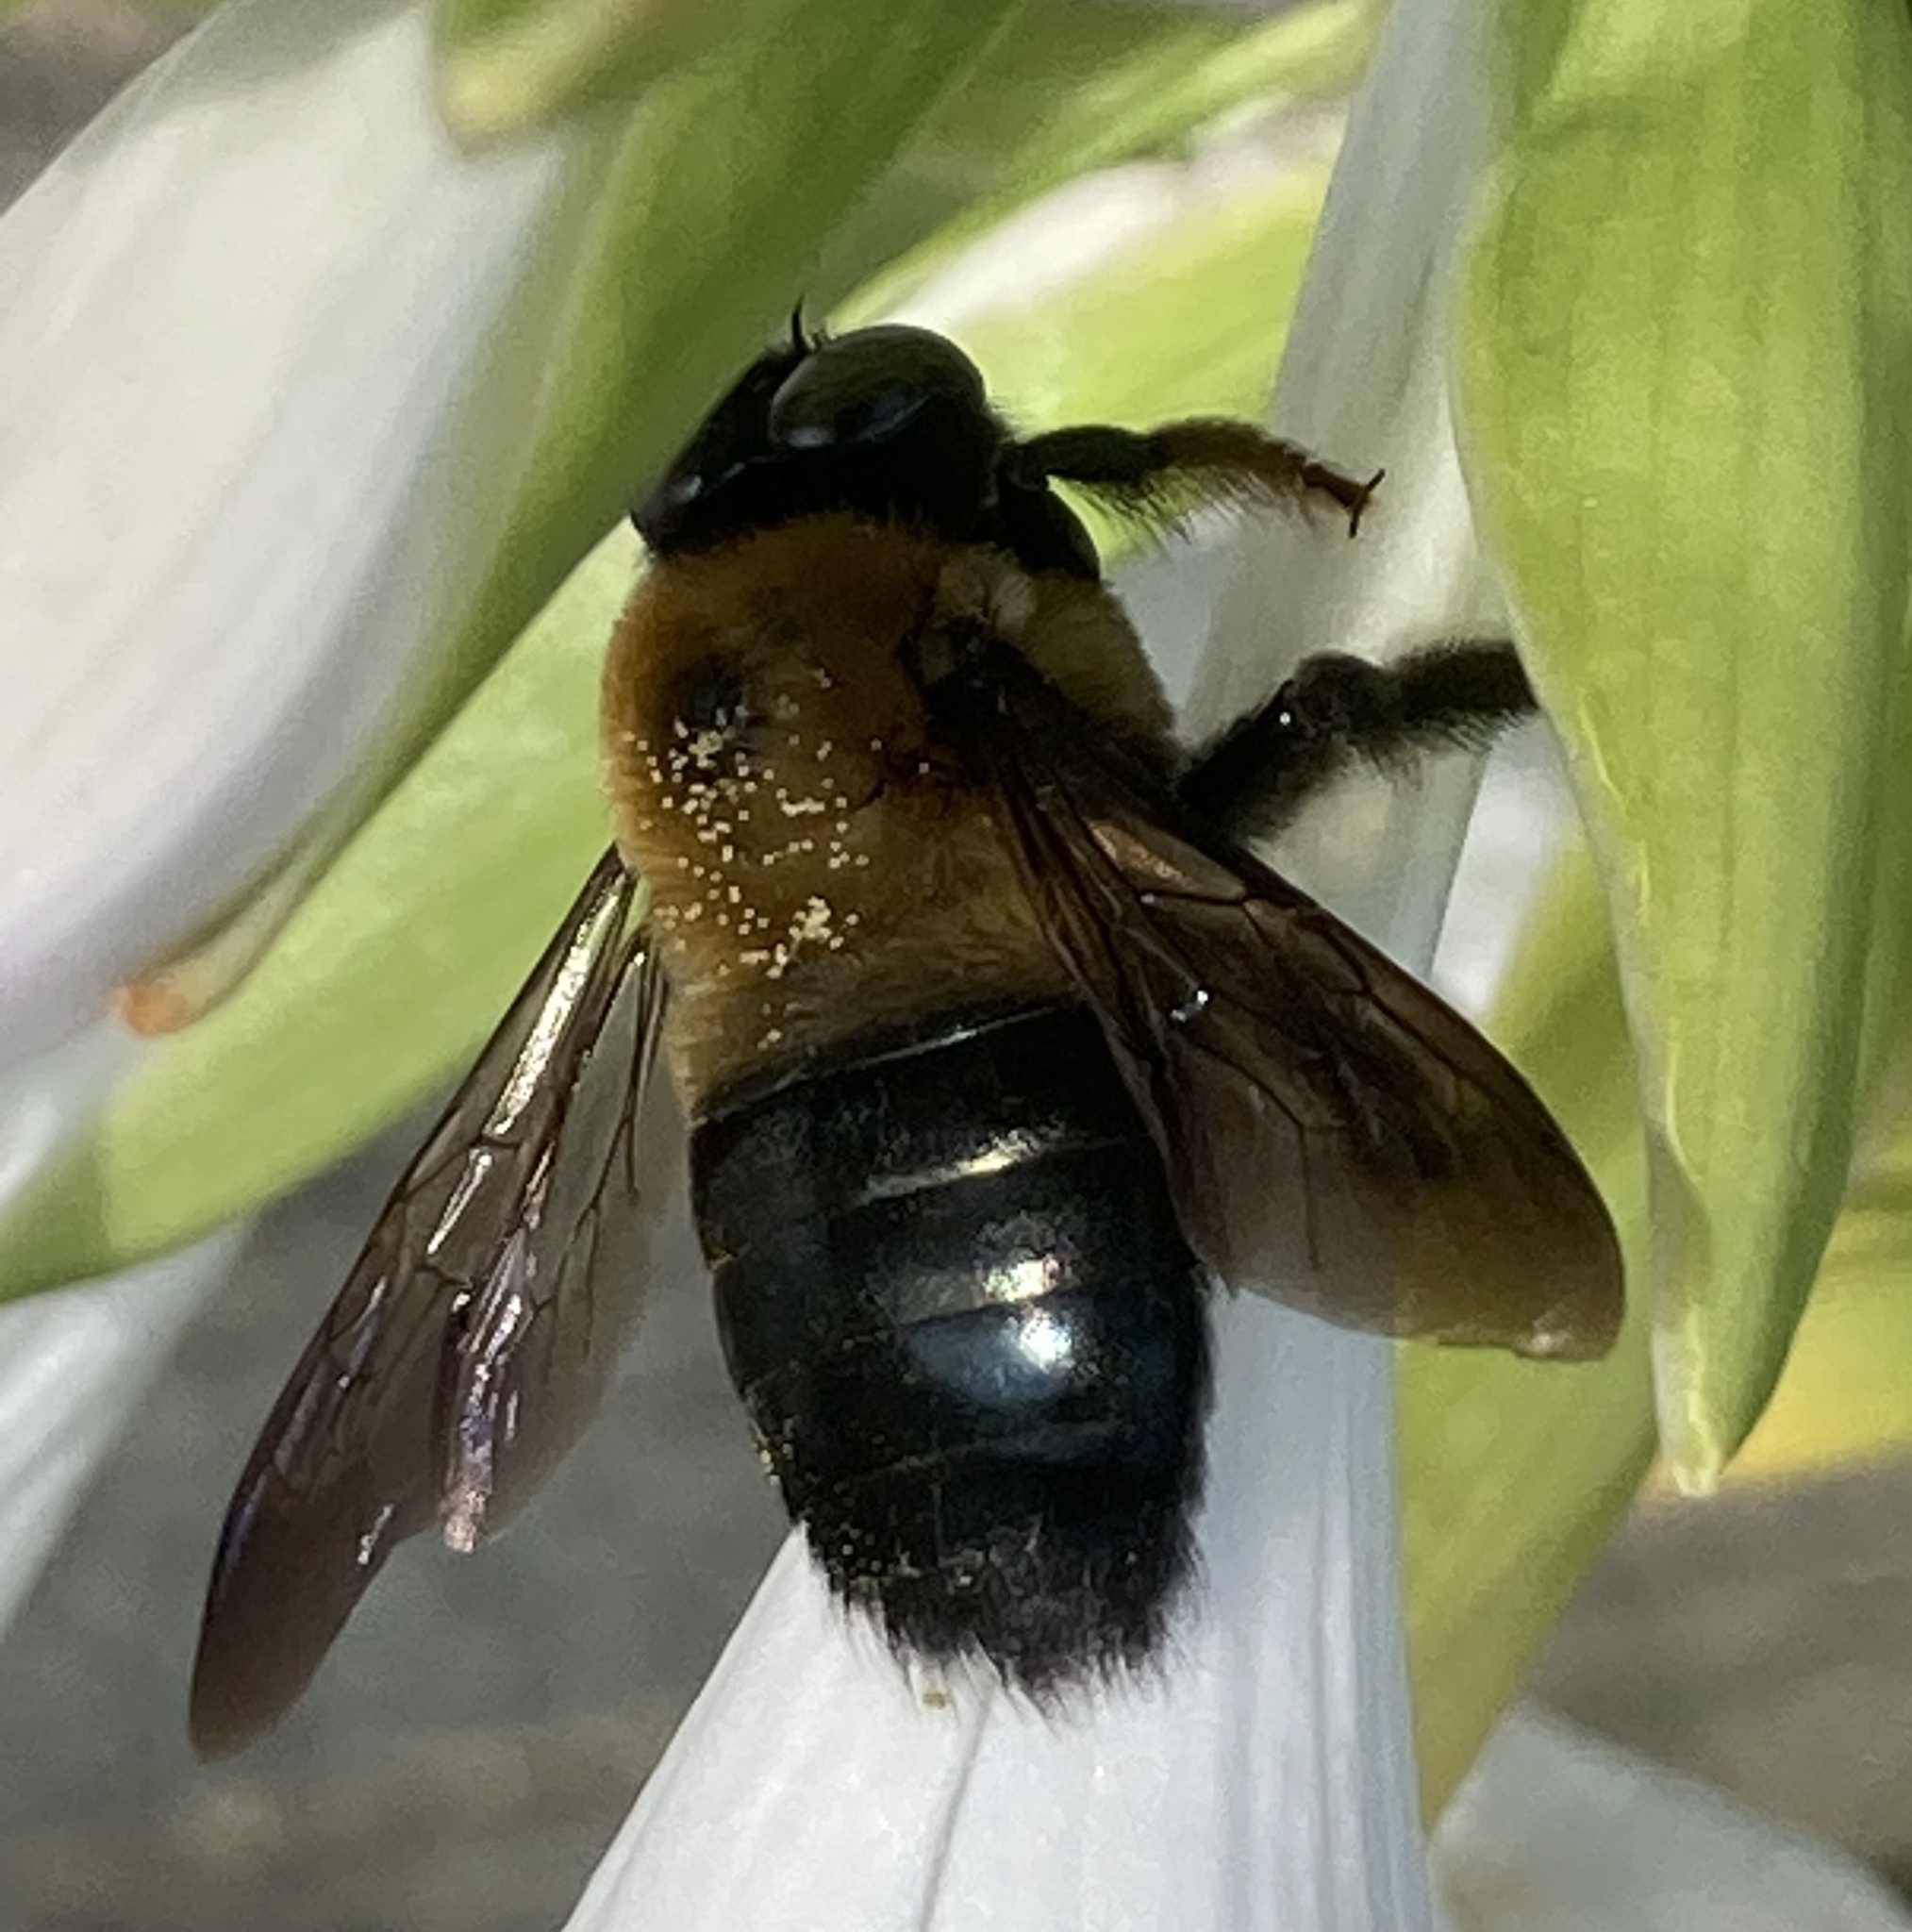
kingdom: Animalia
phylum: Arthropoda
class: Insecta
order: Hymenoptera
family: Apidae
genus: Xylocopa
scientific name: Xylocopa virginica
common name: Carpenter bee
